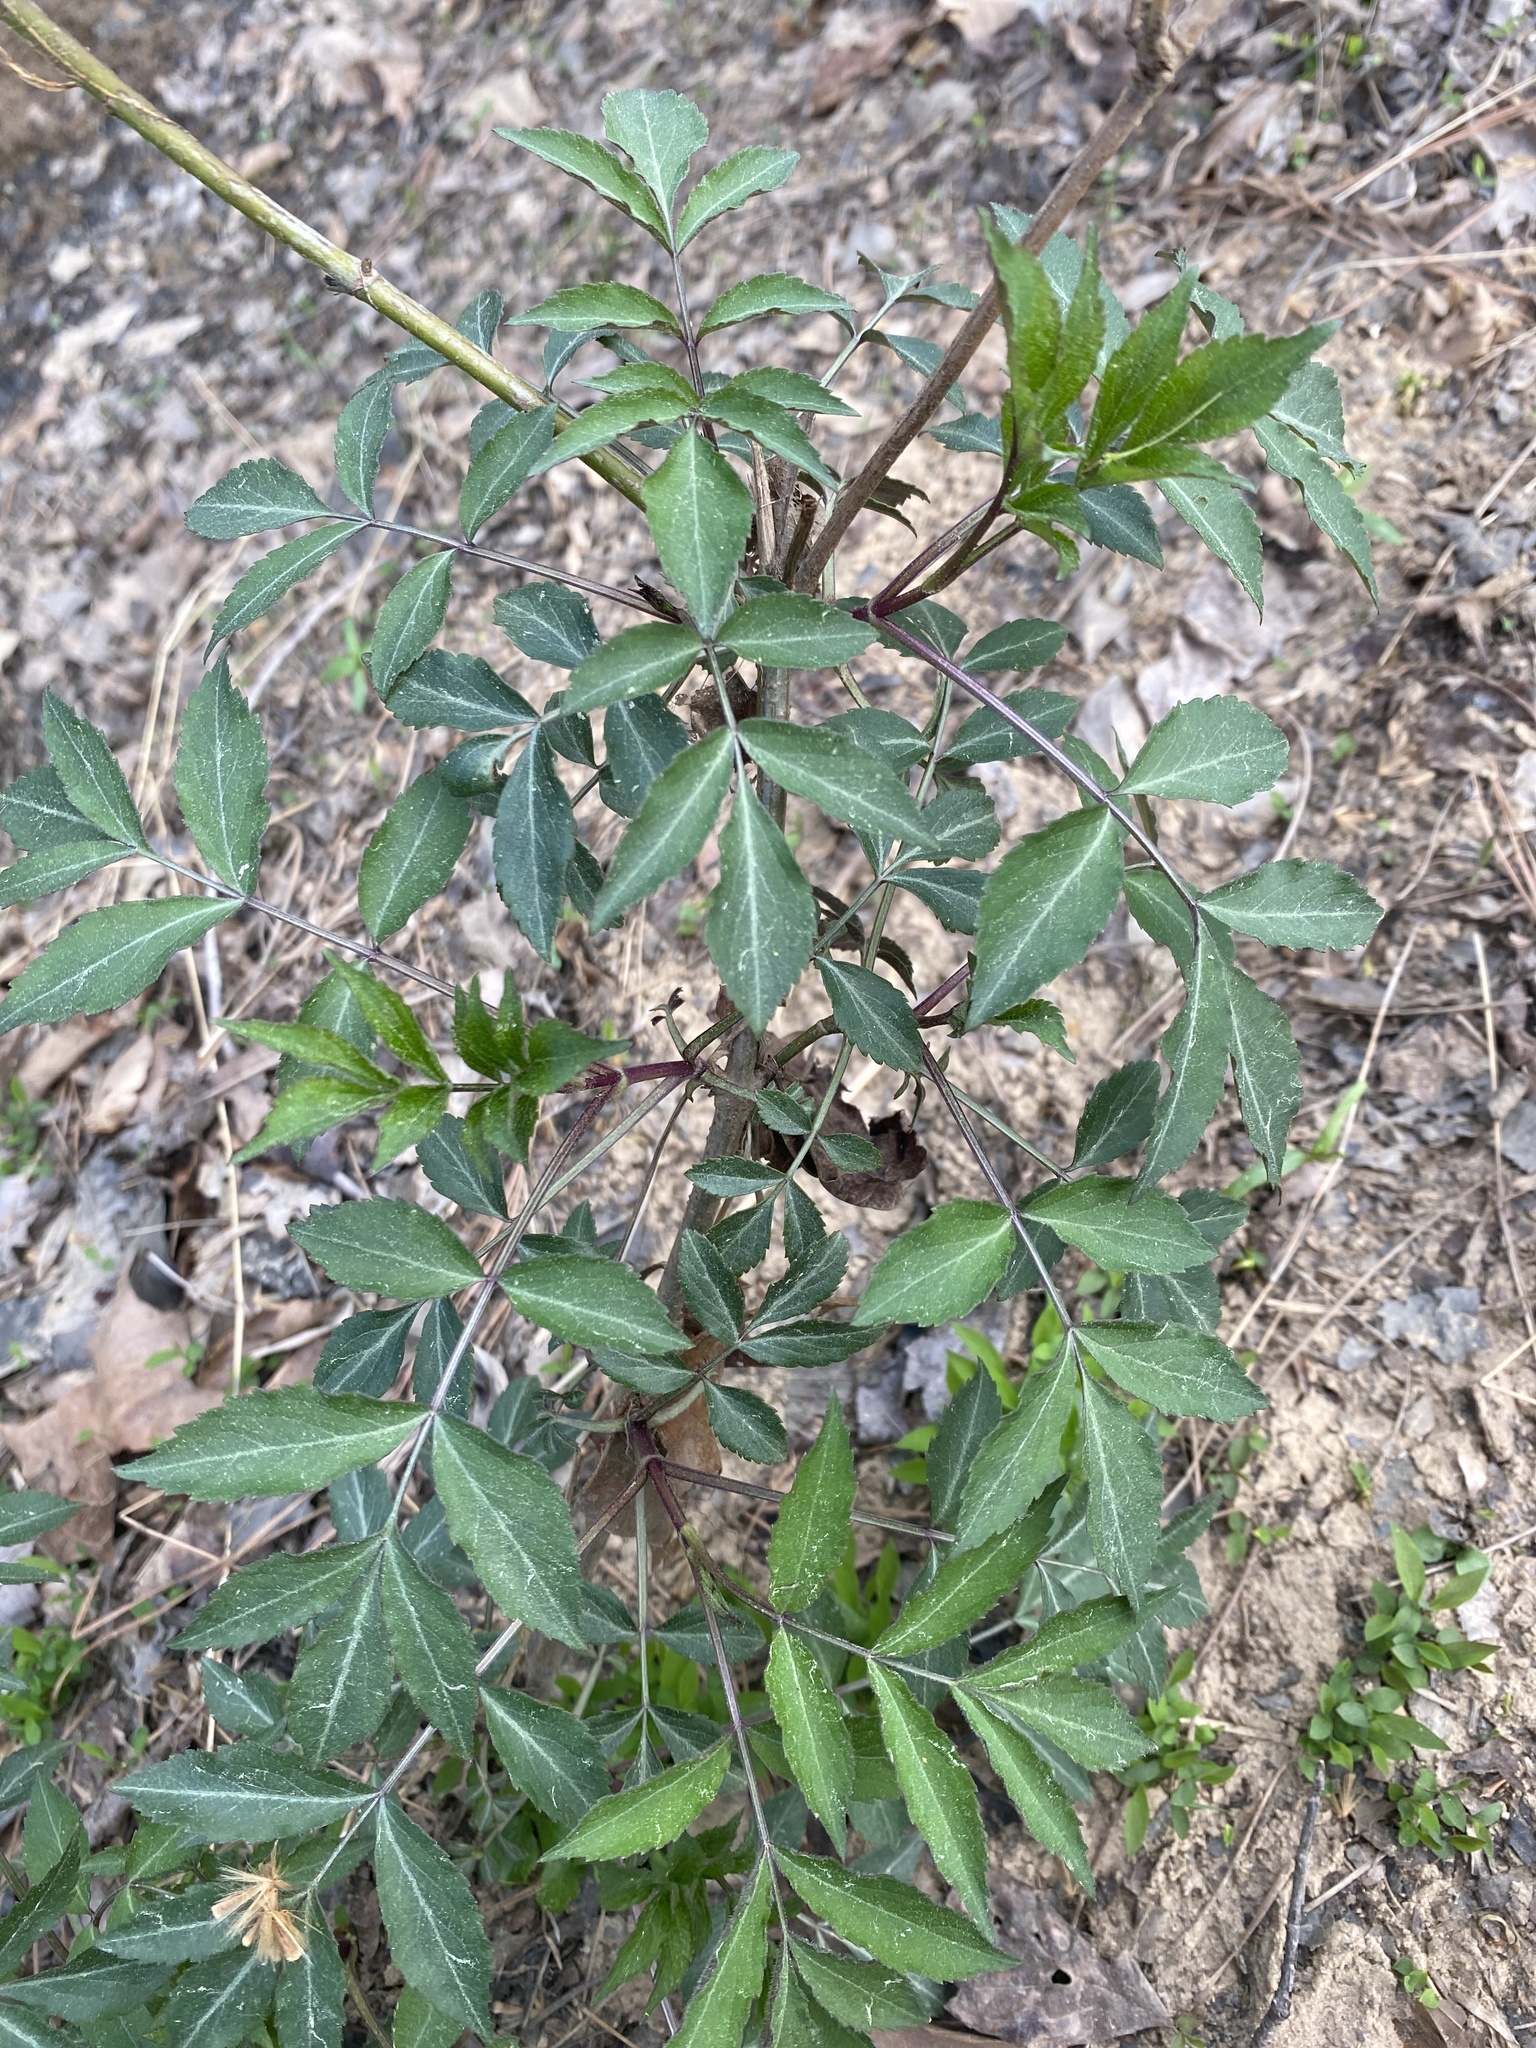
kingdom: Plantae
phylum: Tracheophyta
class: Magnoliopsida
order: Dipsacales
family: Viburnaceae
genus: Sambucus
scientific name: Sambucus canadensis
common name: American elder
